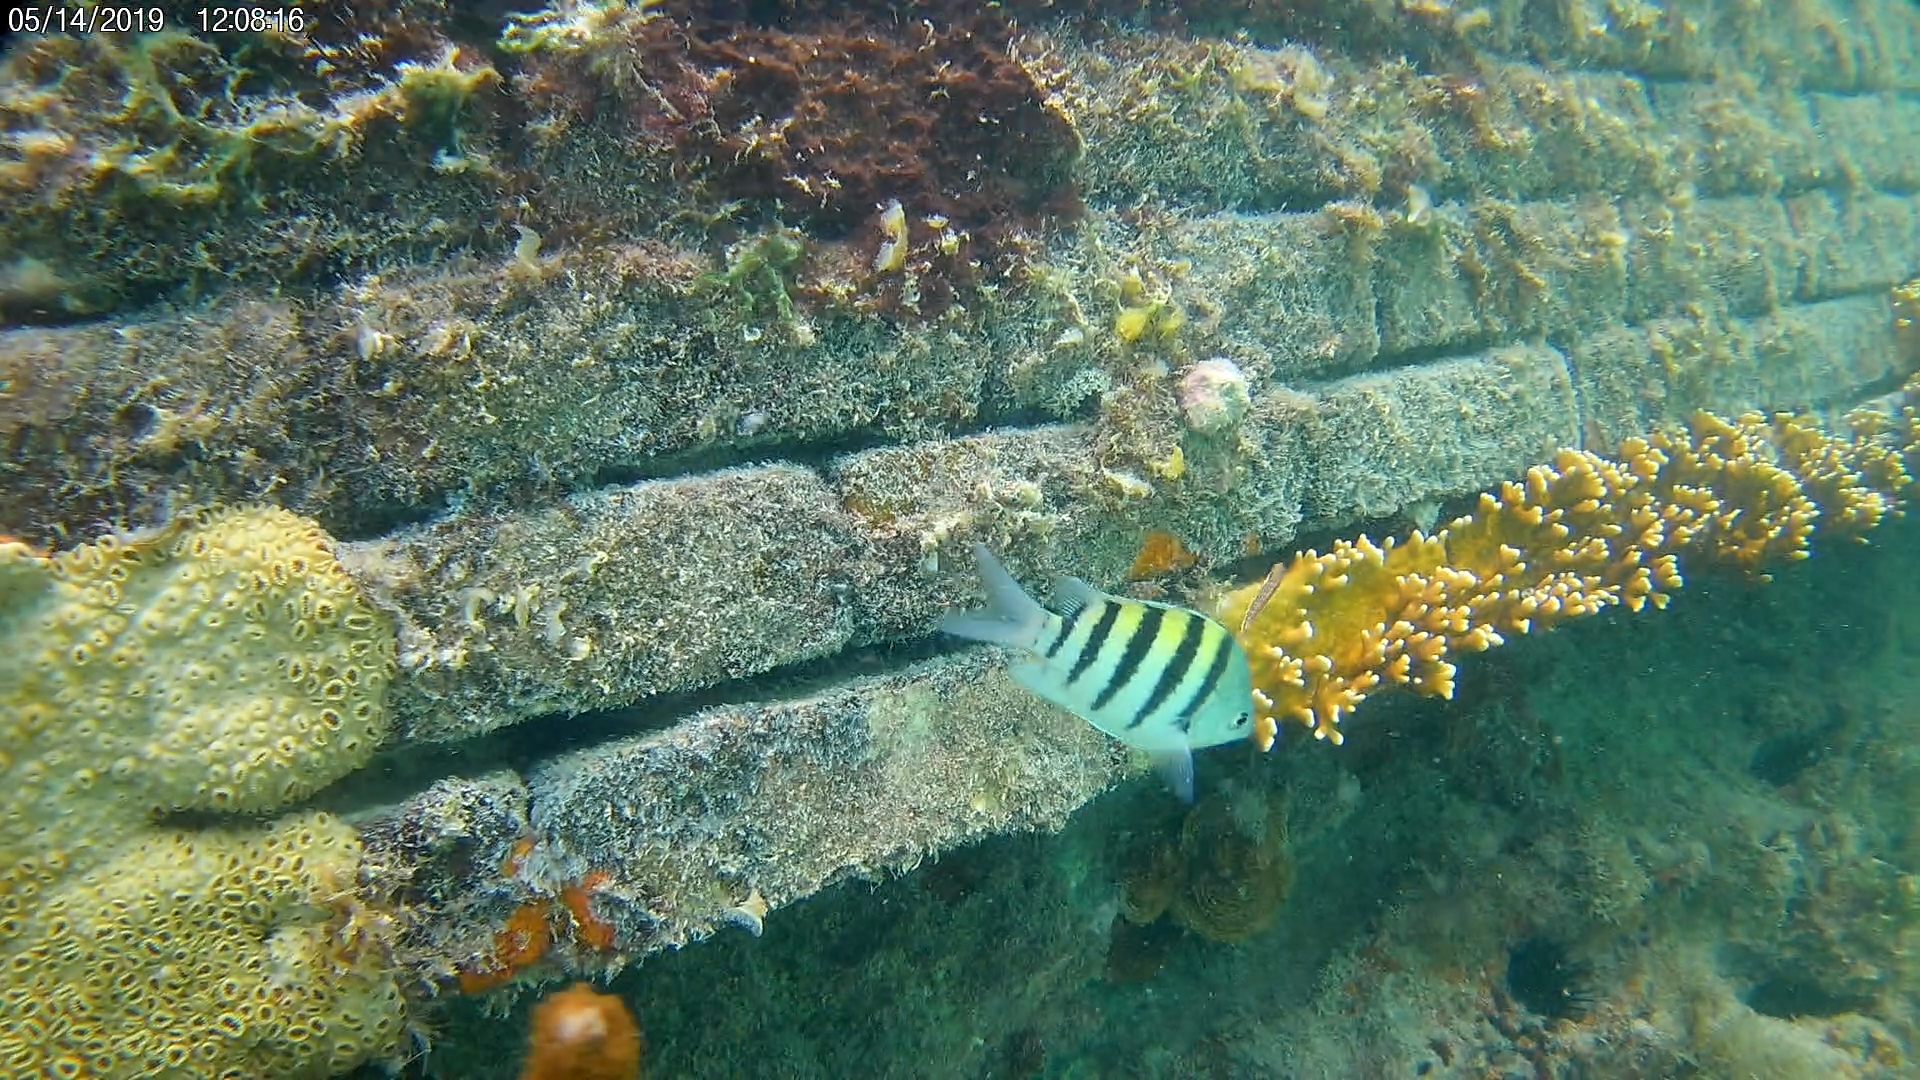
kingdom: Animalia
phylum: Chordata
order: Perciformes
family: Pomacentridae
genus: Abudefduf
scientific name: Abudefduf saxatilis
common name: Sergeant major
